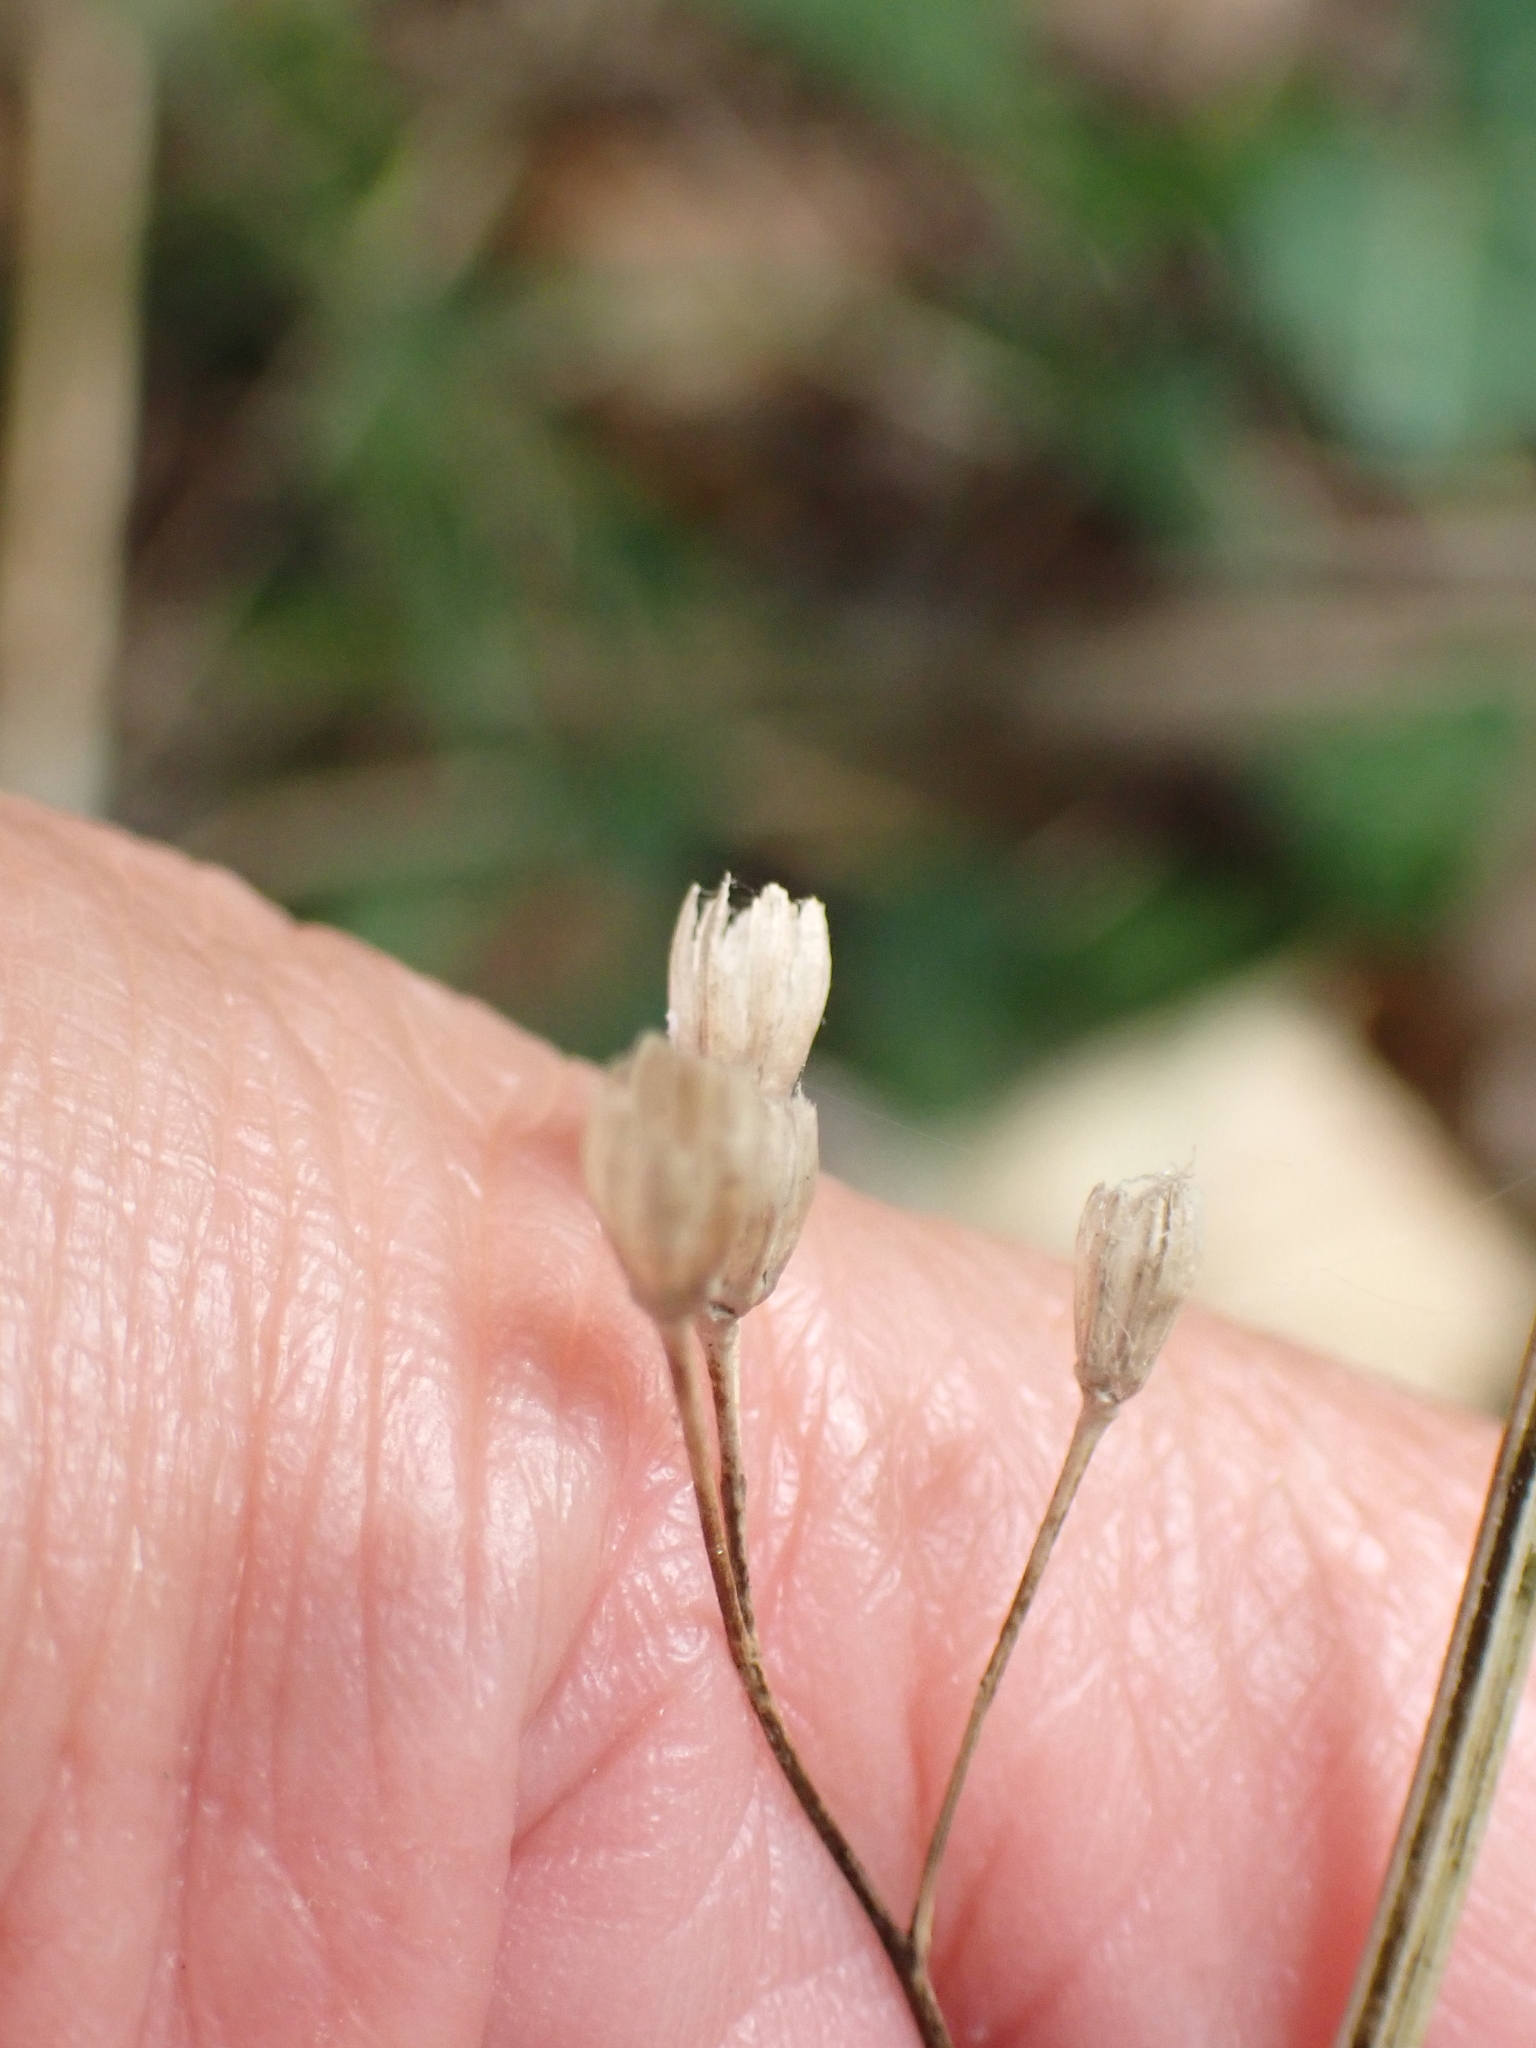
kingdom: Plantae
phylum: Tracheophyta
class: Magnoliopsida
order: Asterales
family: Asteraceae
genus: Lapsana
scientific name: Lapsana communis
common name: Nipplewort
